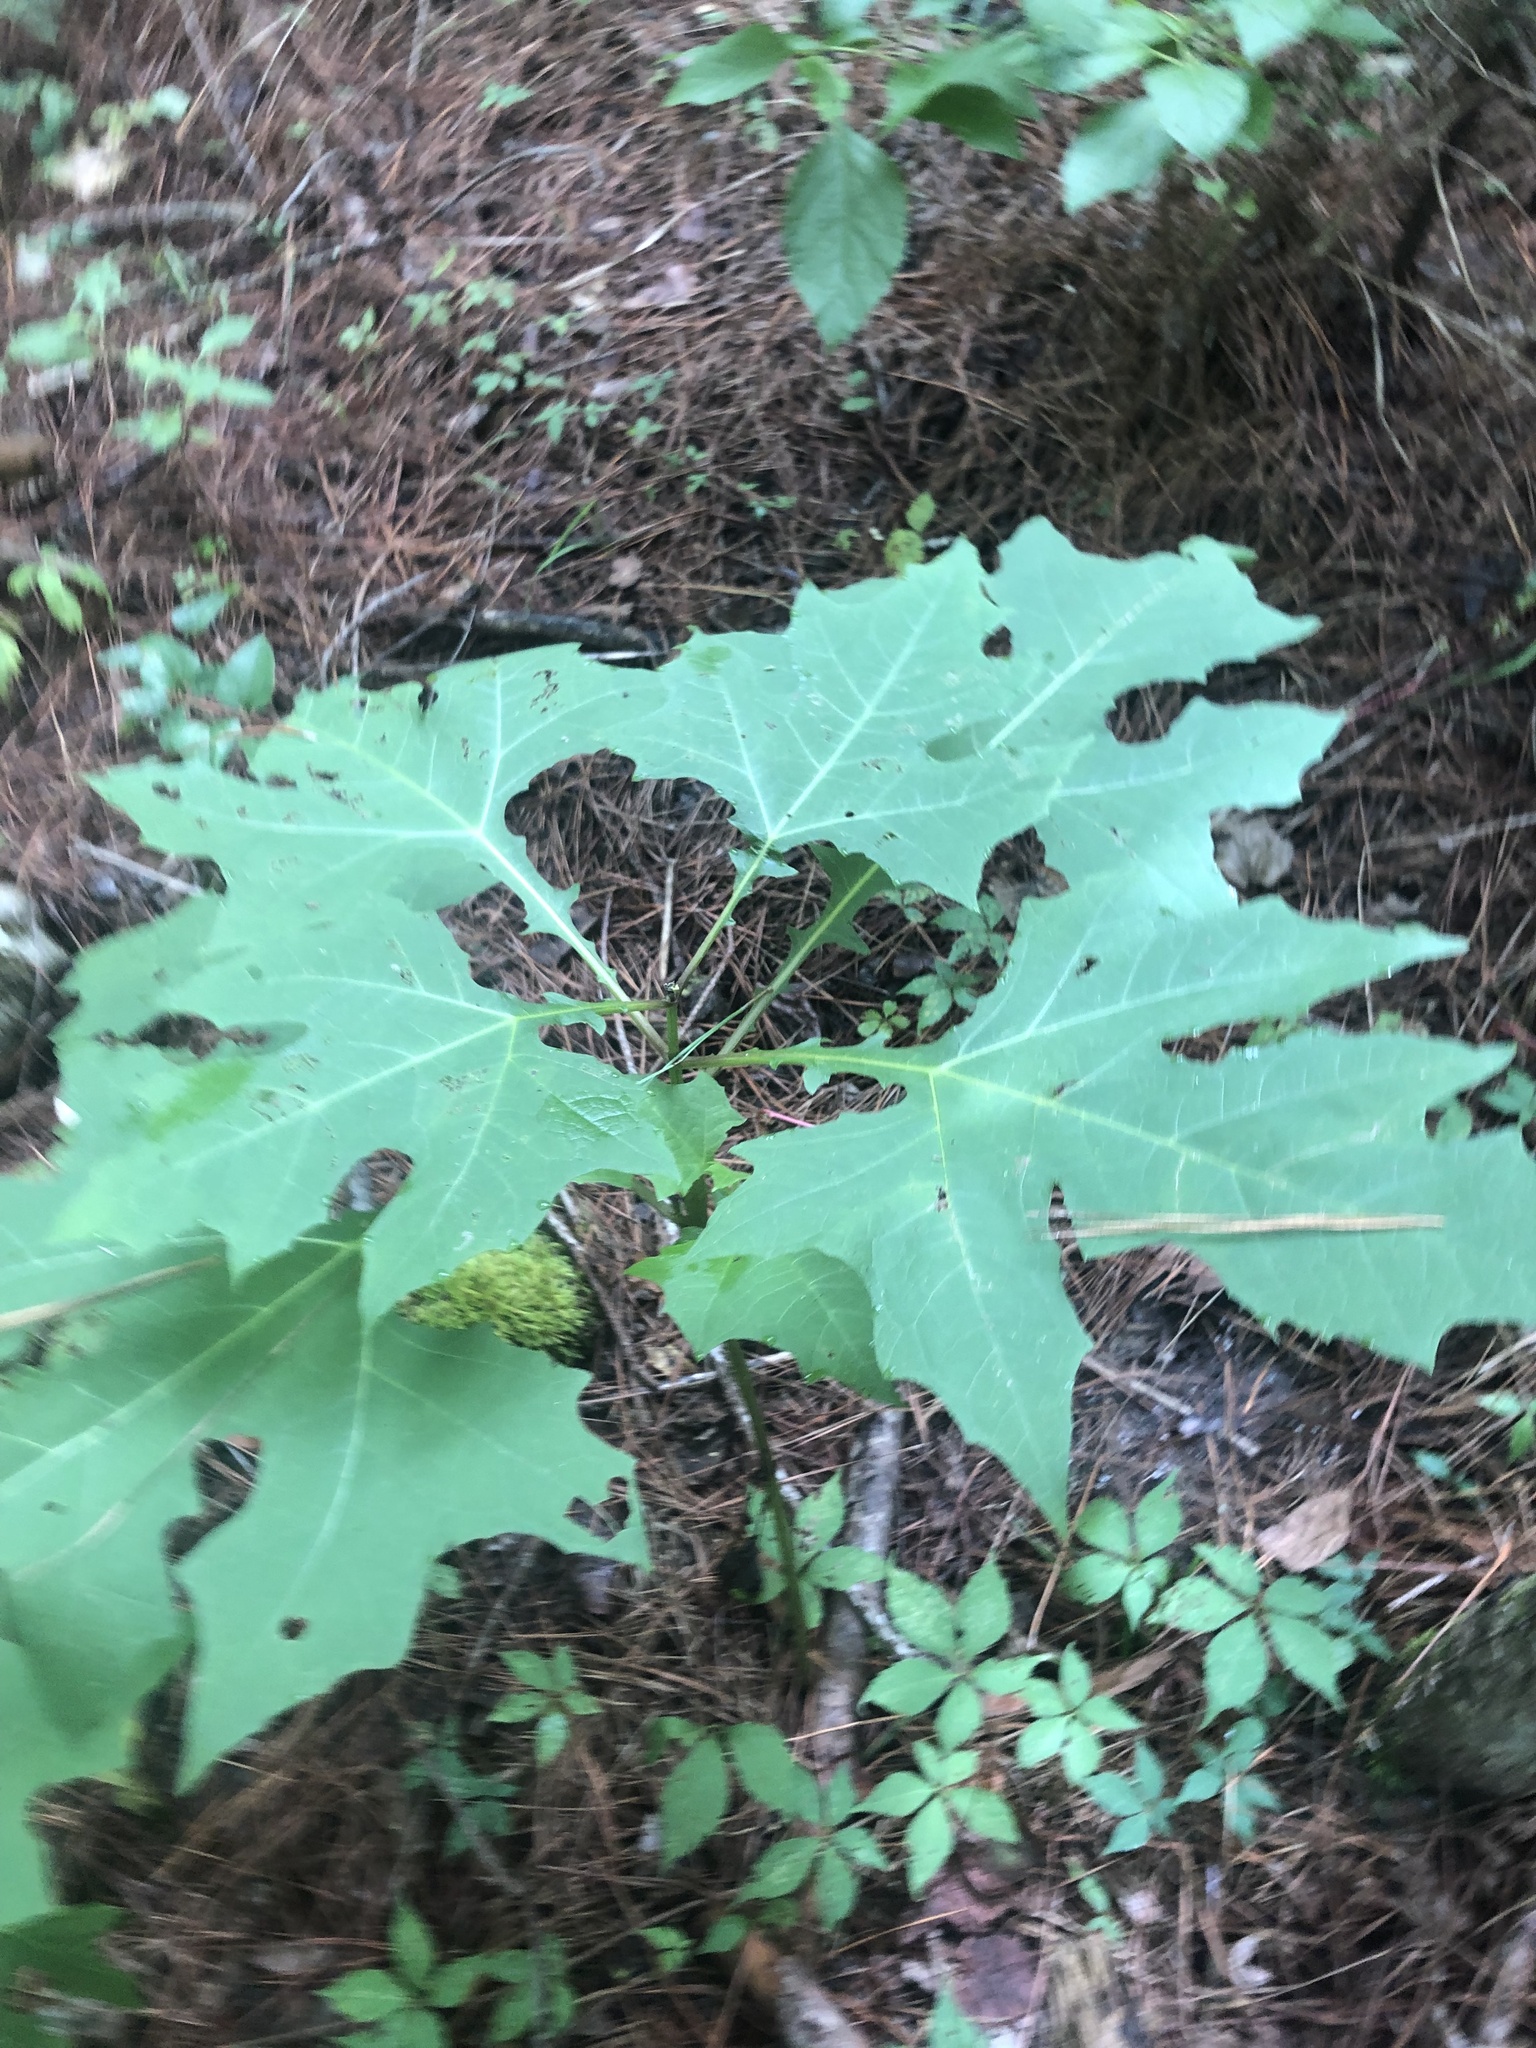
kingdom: Plantae
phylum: Tracheophyta
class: Magnoliopsida
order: Asterales
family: Asteraceae
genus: Smallanthus
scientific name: Smallanthus uvedalia
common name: Bear's-foot
